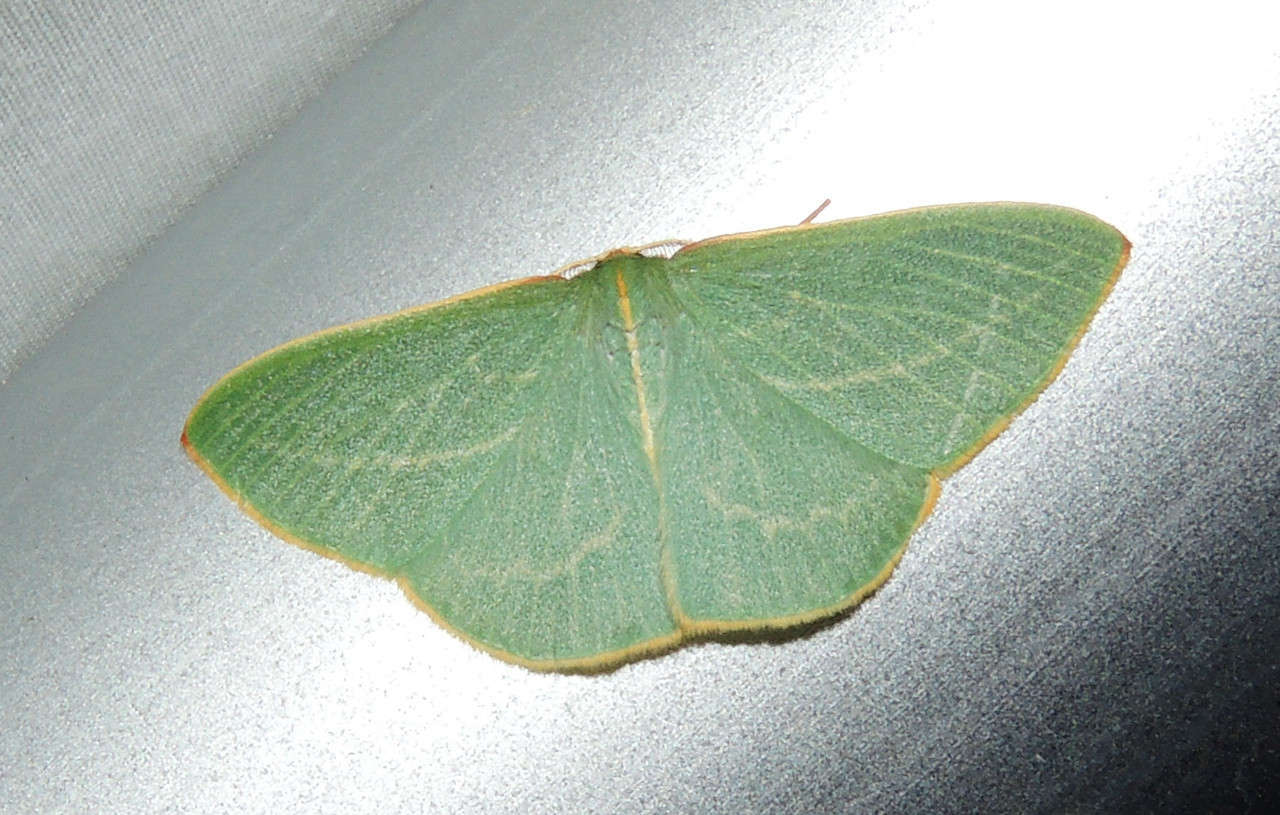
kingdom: Animalia
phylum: Arthropoda
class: Insecta
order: Lepidoptera
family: Geometridae
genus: Chlorocoma
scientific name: Chlorocoma carenaria
